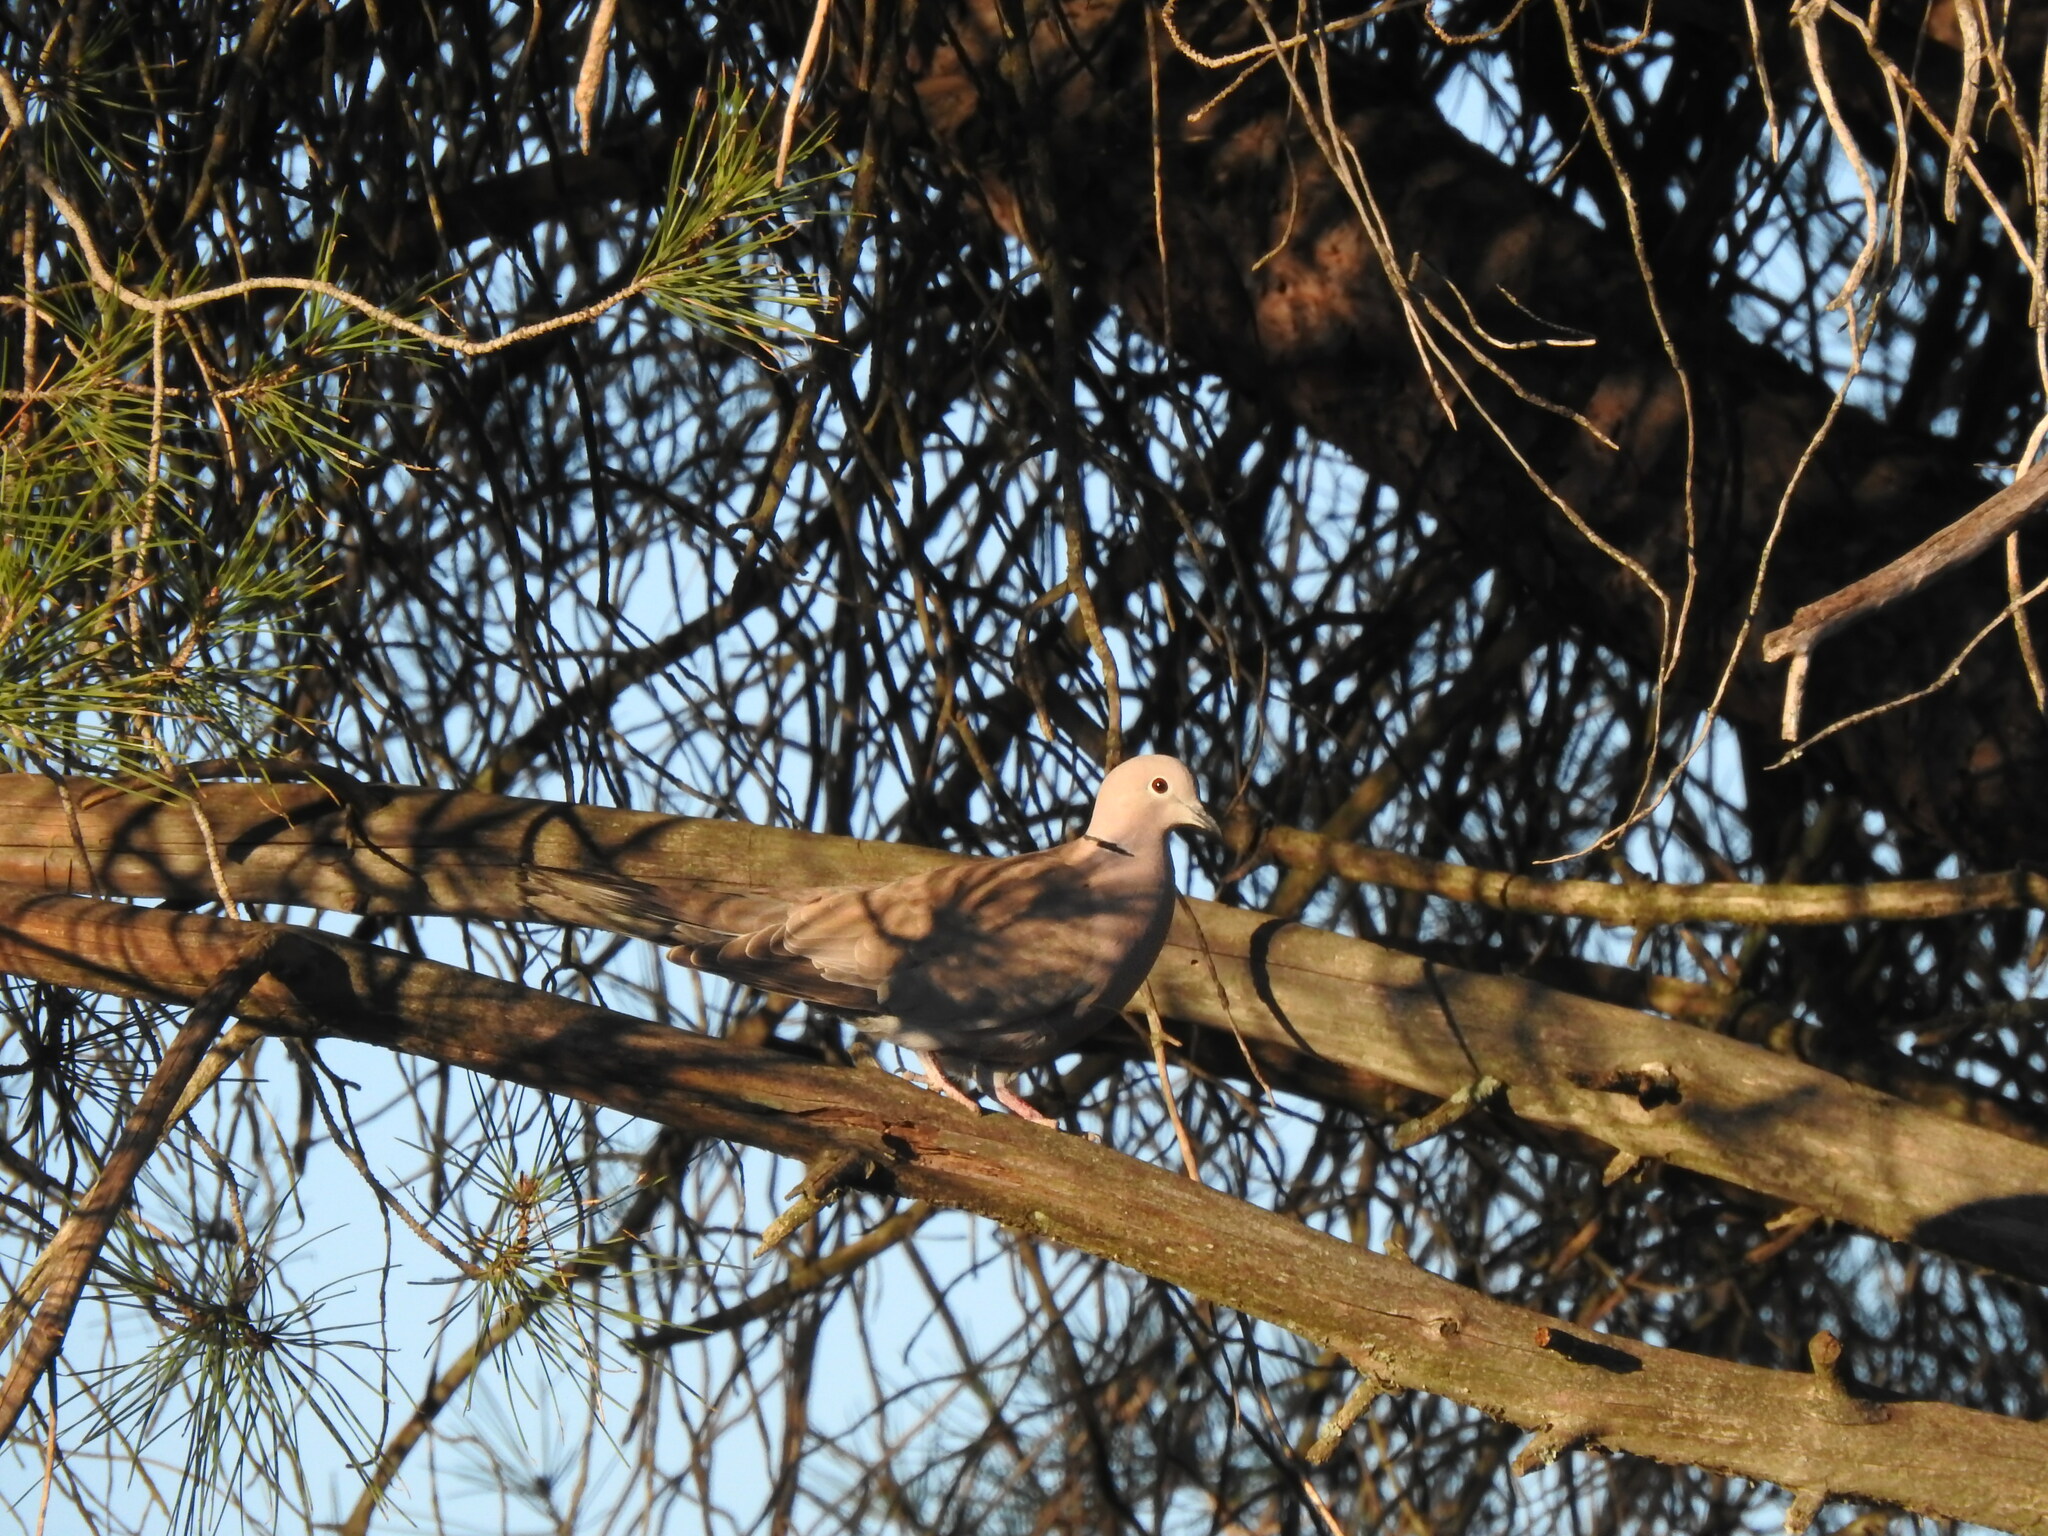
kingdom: Animalia
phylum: Chordata
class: Aves
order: Columbiformes
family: Columbidae
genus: Streptopelia
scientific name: Streptopelia decaocto
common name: Eurasian collared dove
